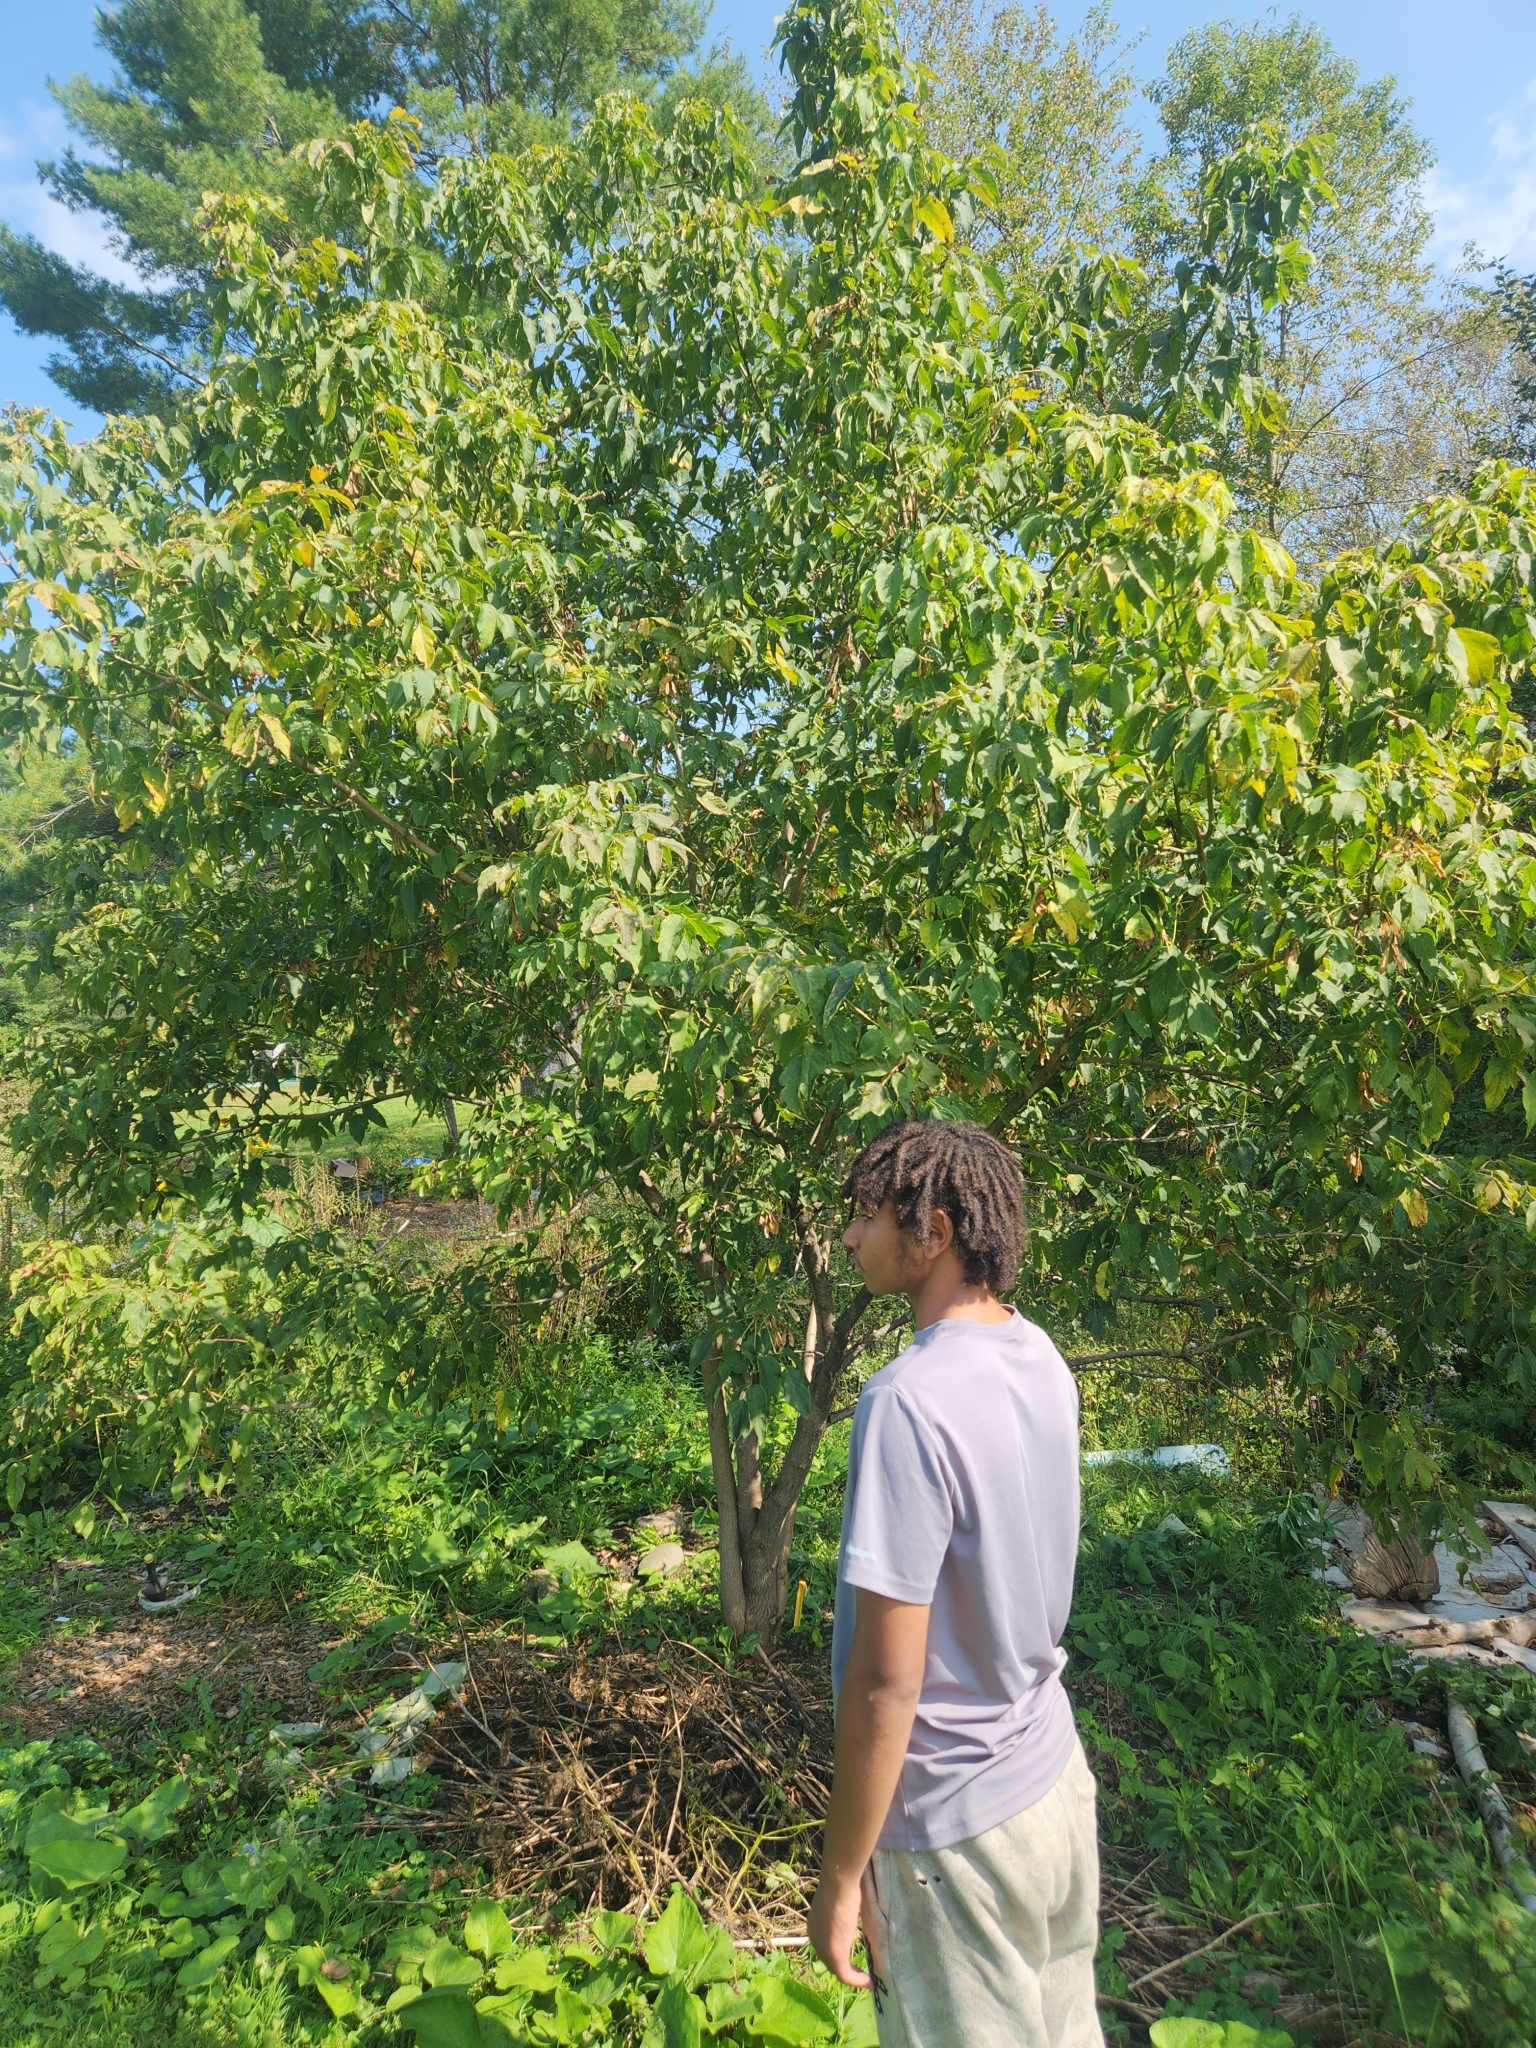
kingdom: Plantae
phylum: Tracheophyta
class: Magnoliopsida
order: Sapindales
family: Sapindaceae
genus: Acer
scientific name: Acer negundo
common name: Ashleaf maple
